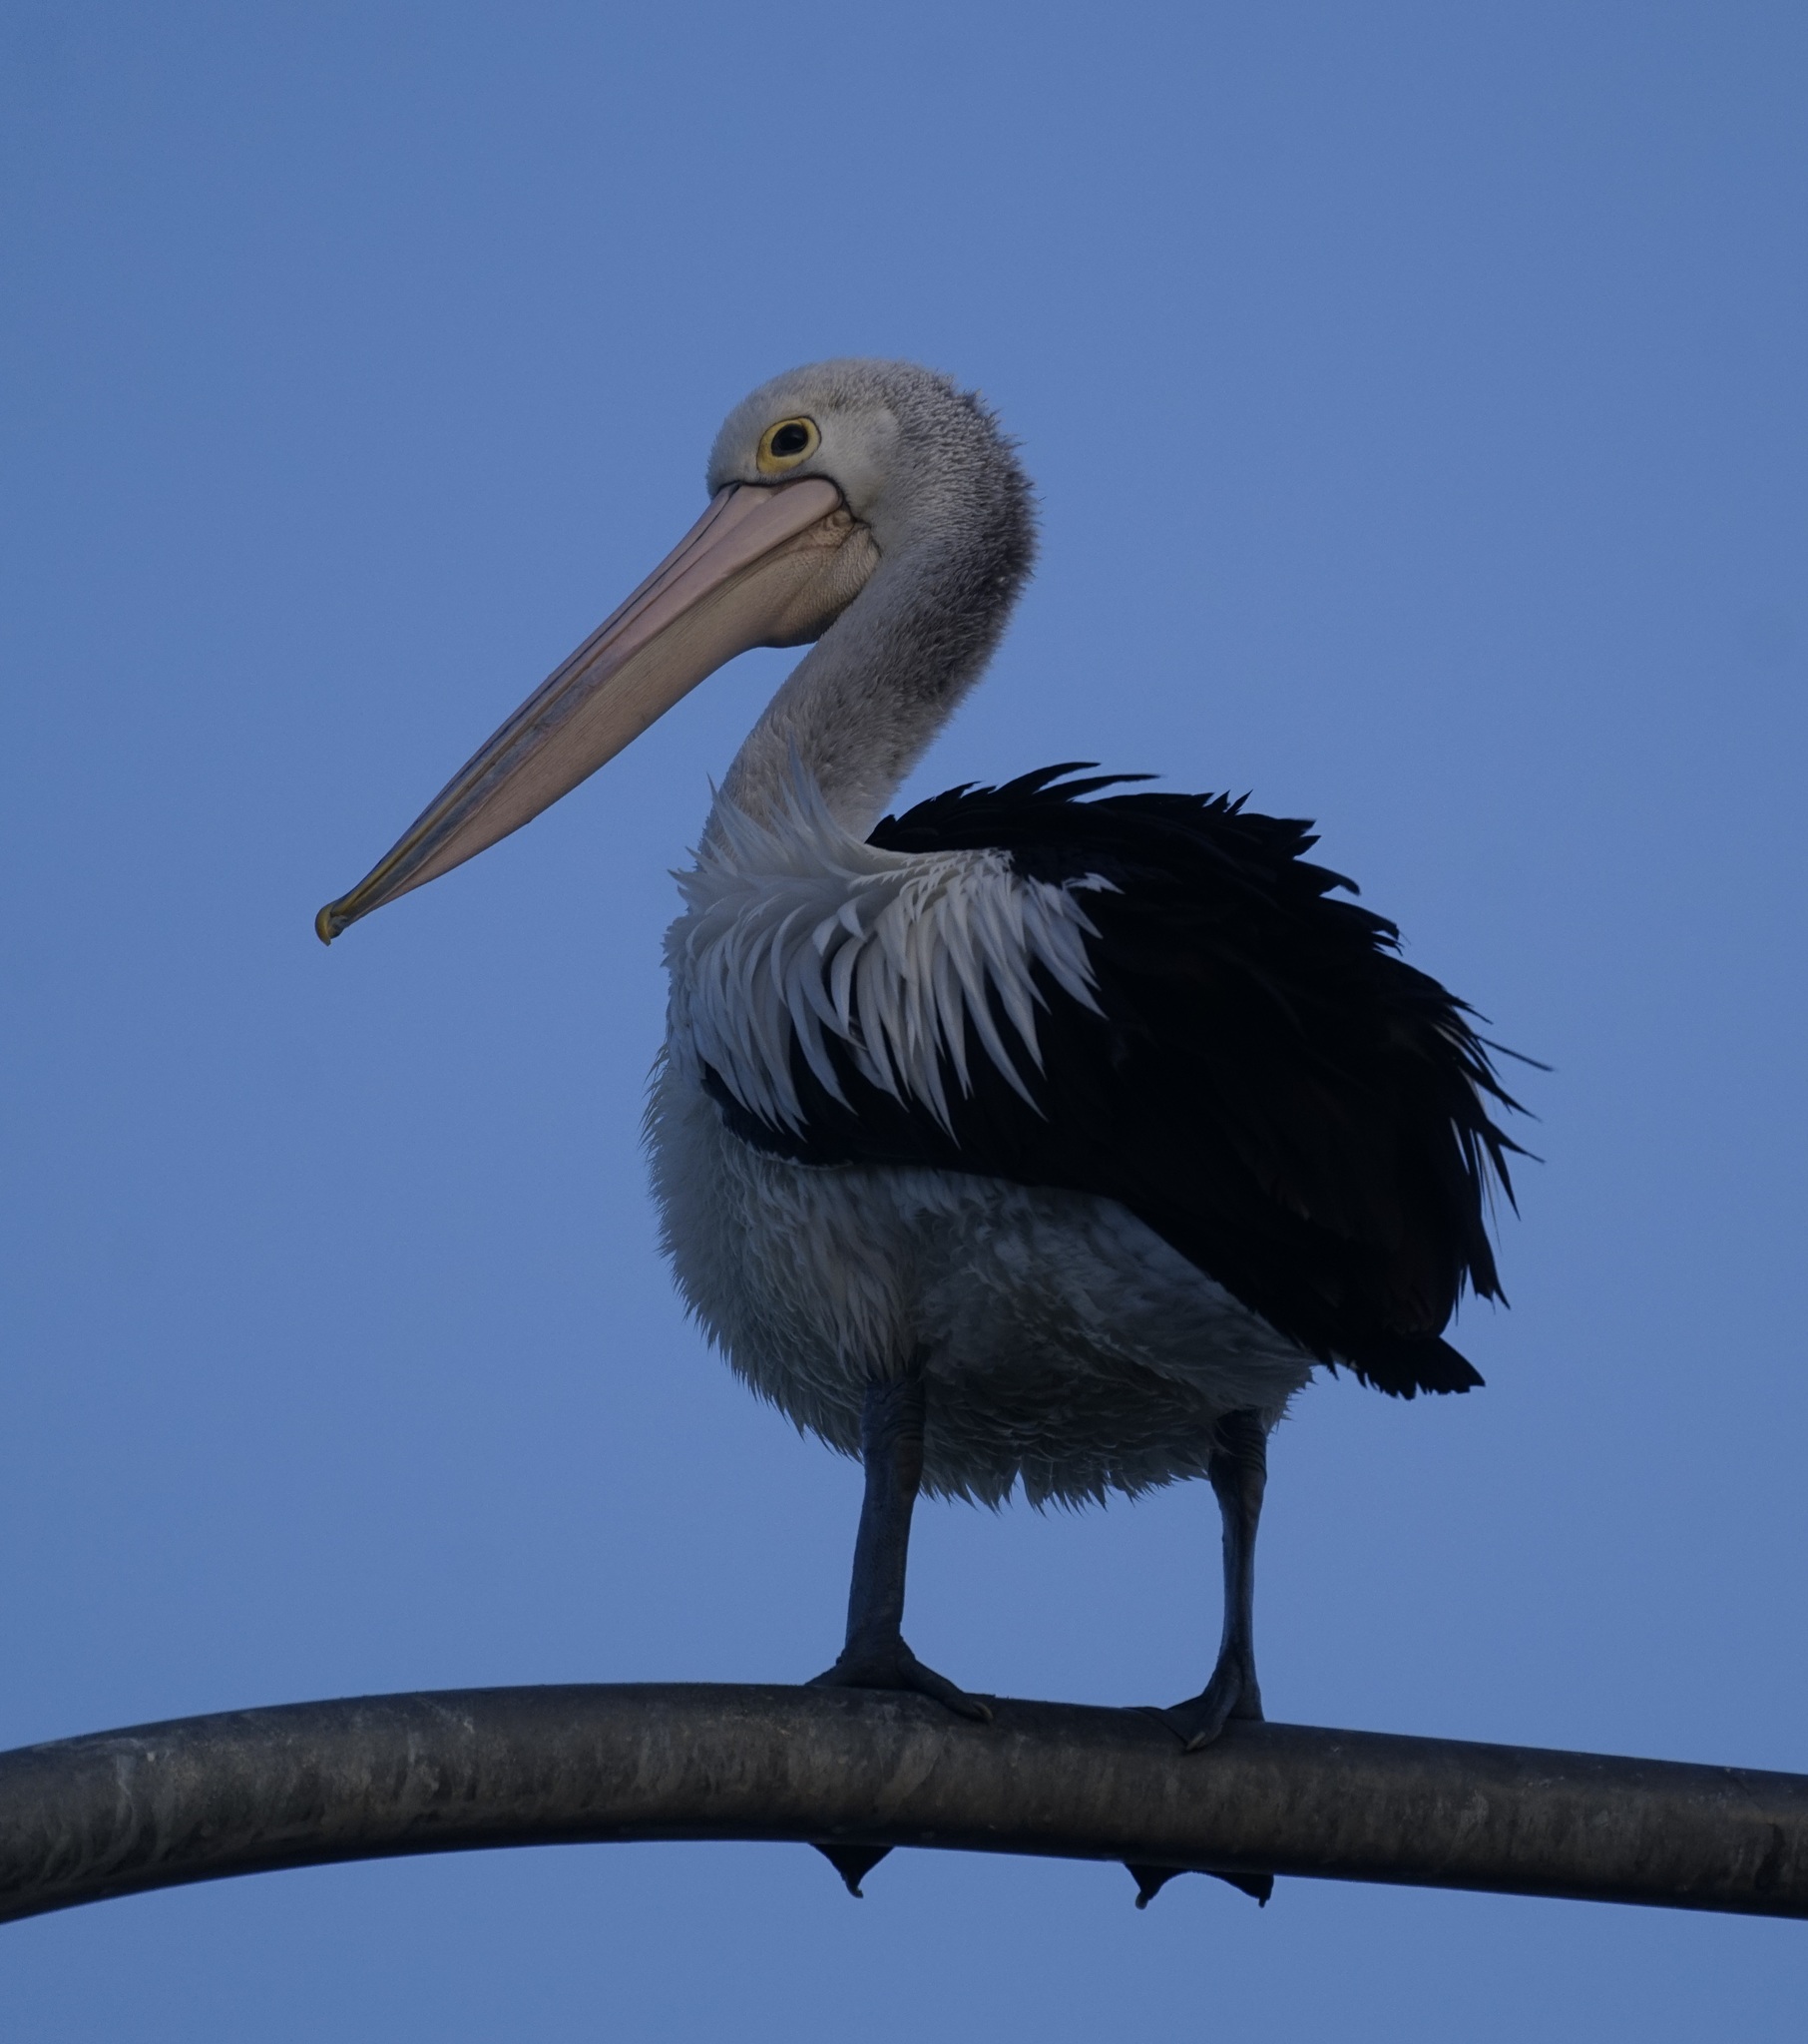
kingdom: Animalia
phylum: Chordata
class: Aves
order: Pelecaniformes
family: Pelecanidae
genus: Pelecanus
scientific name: Pelecanus conspicillatus
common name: Australian pelican
